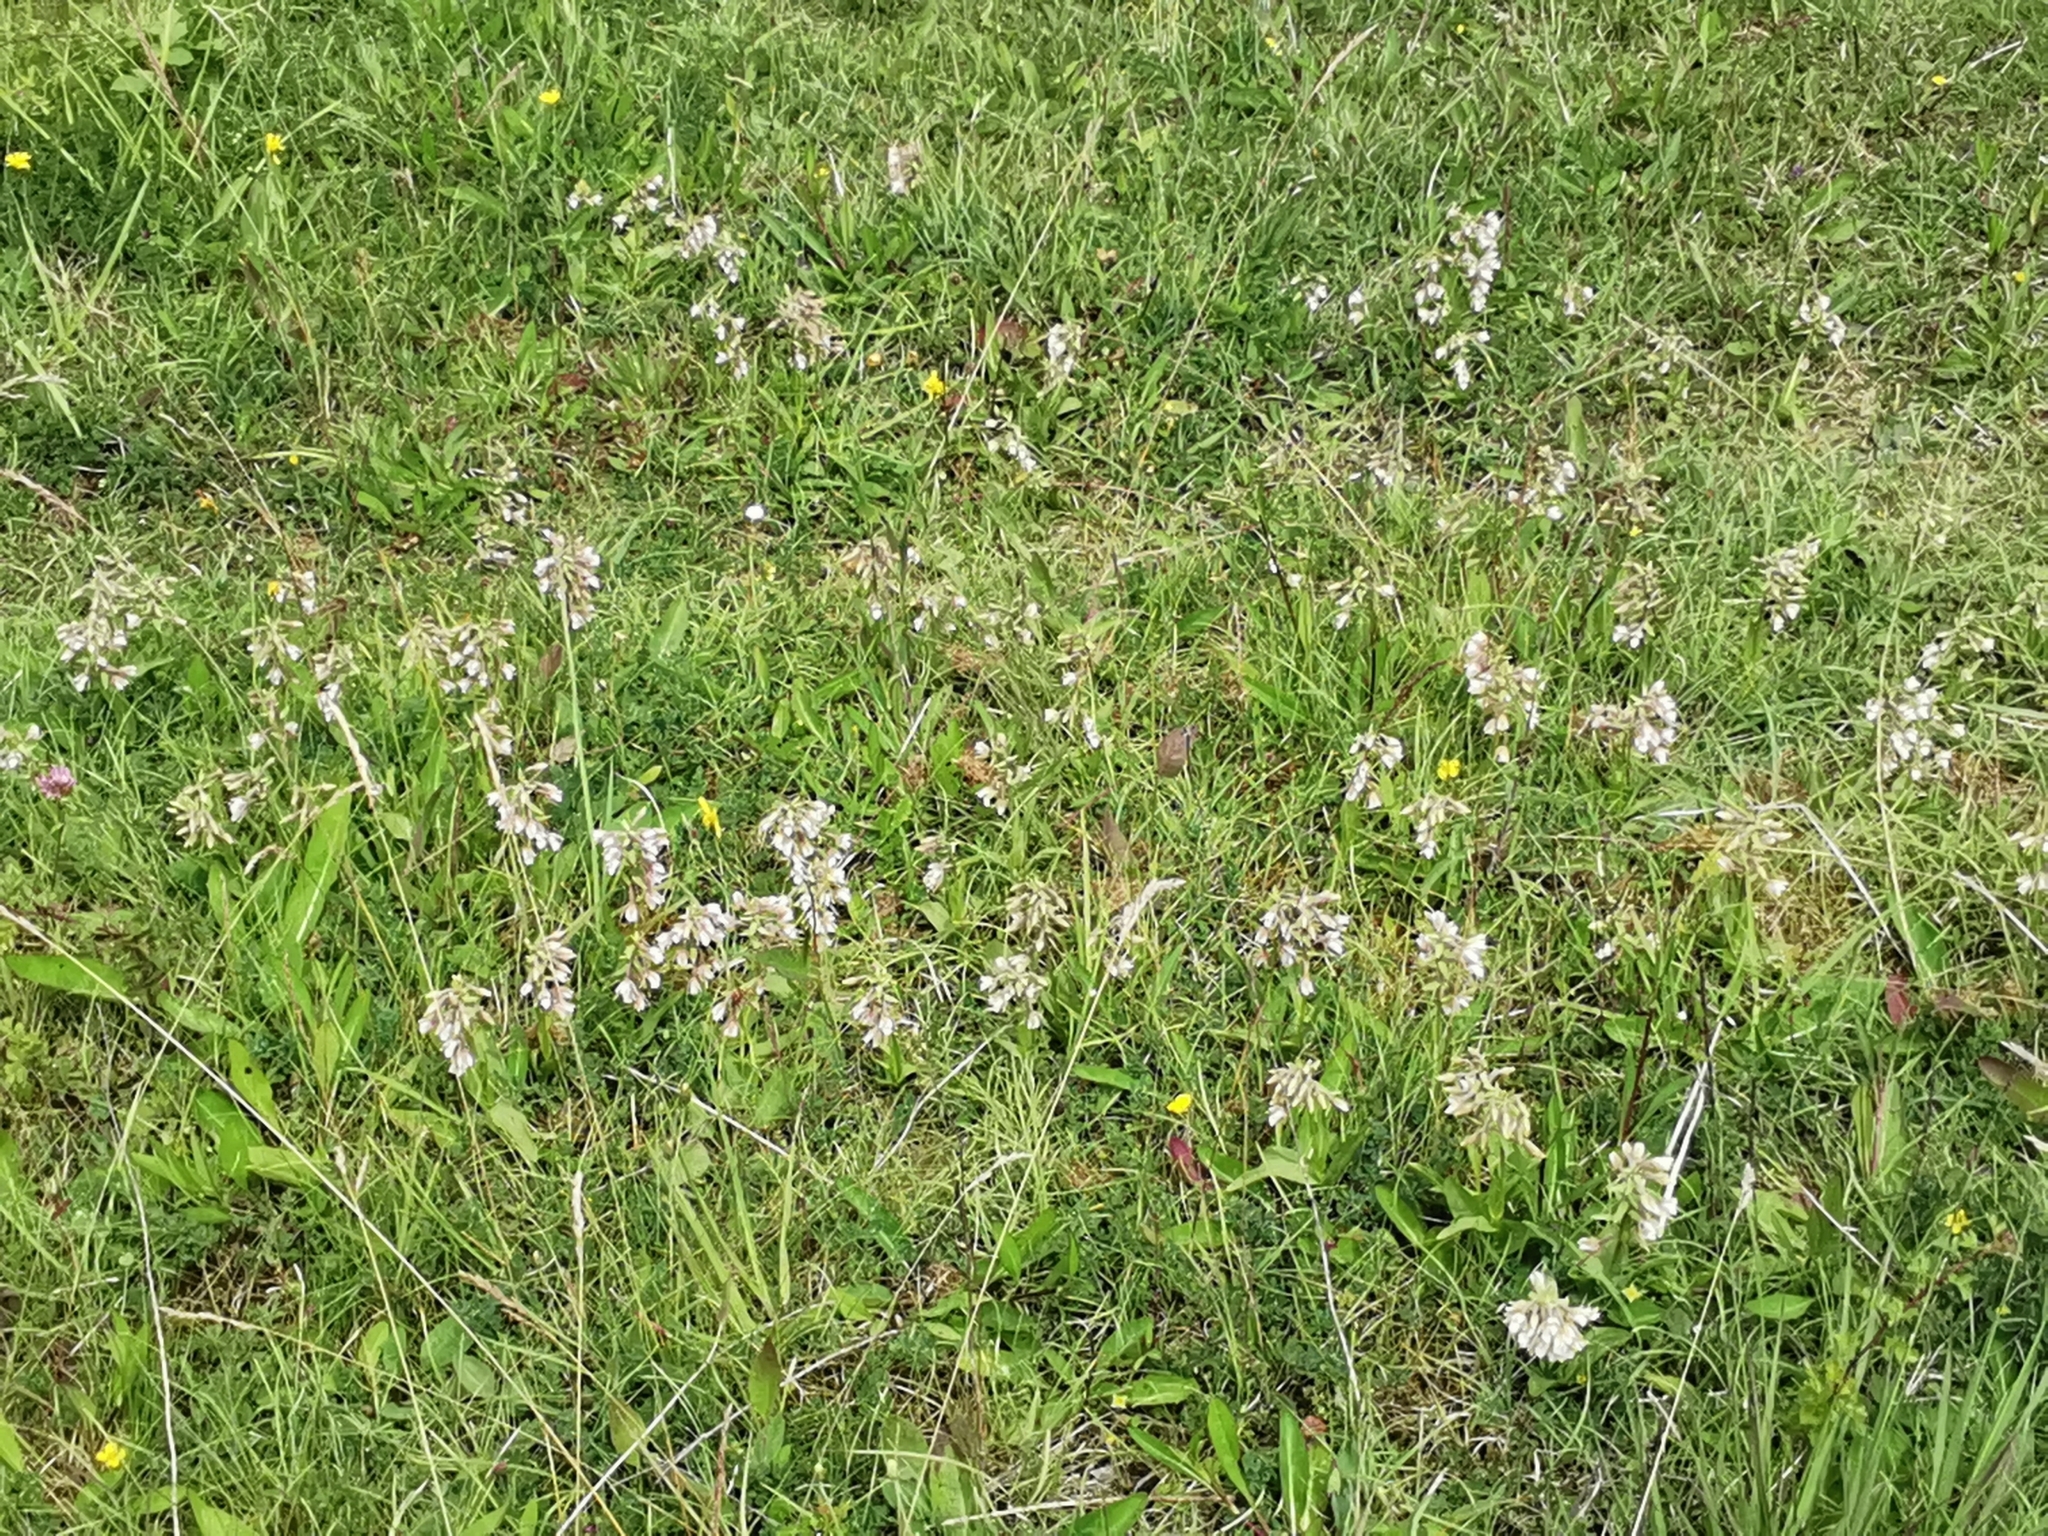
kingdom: Plantae
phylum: Tracheophyta
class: Liliopsida
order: Asparagales
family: Orchidaceae
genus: Epipactis
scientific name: Epipactis palustris
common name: Marsh helleborine
